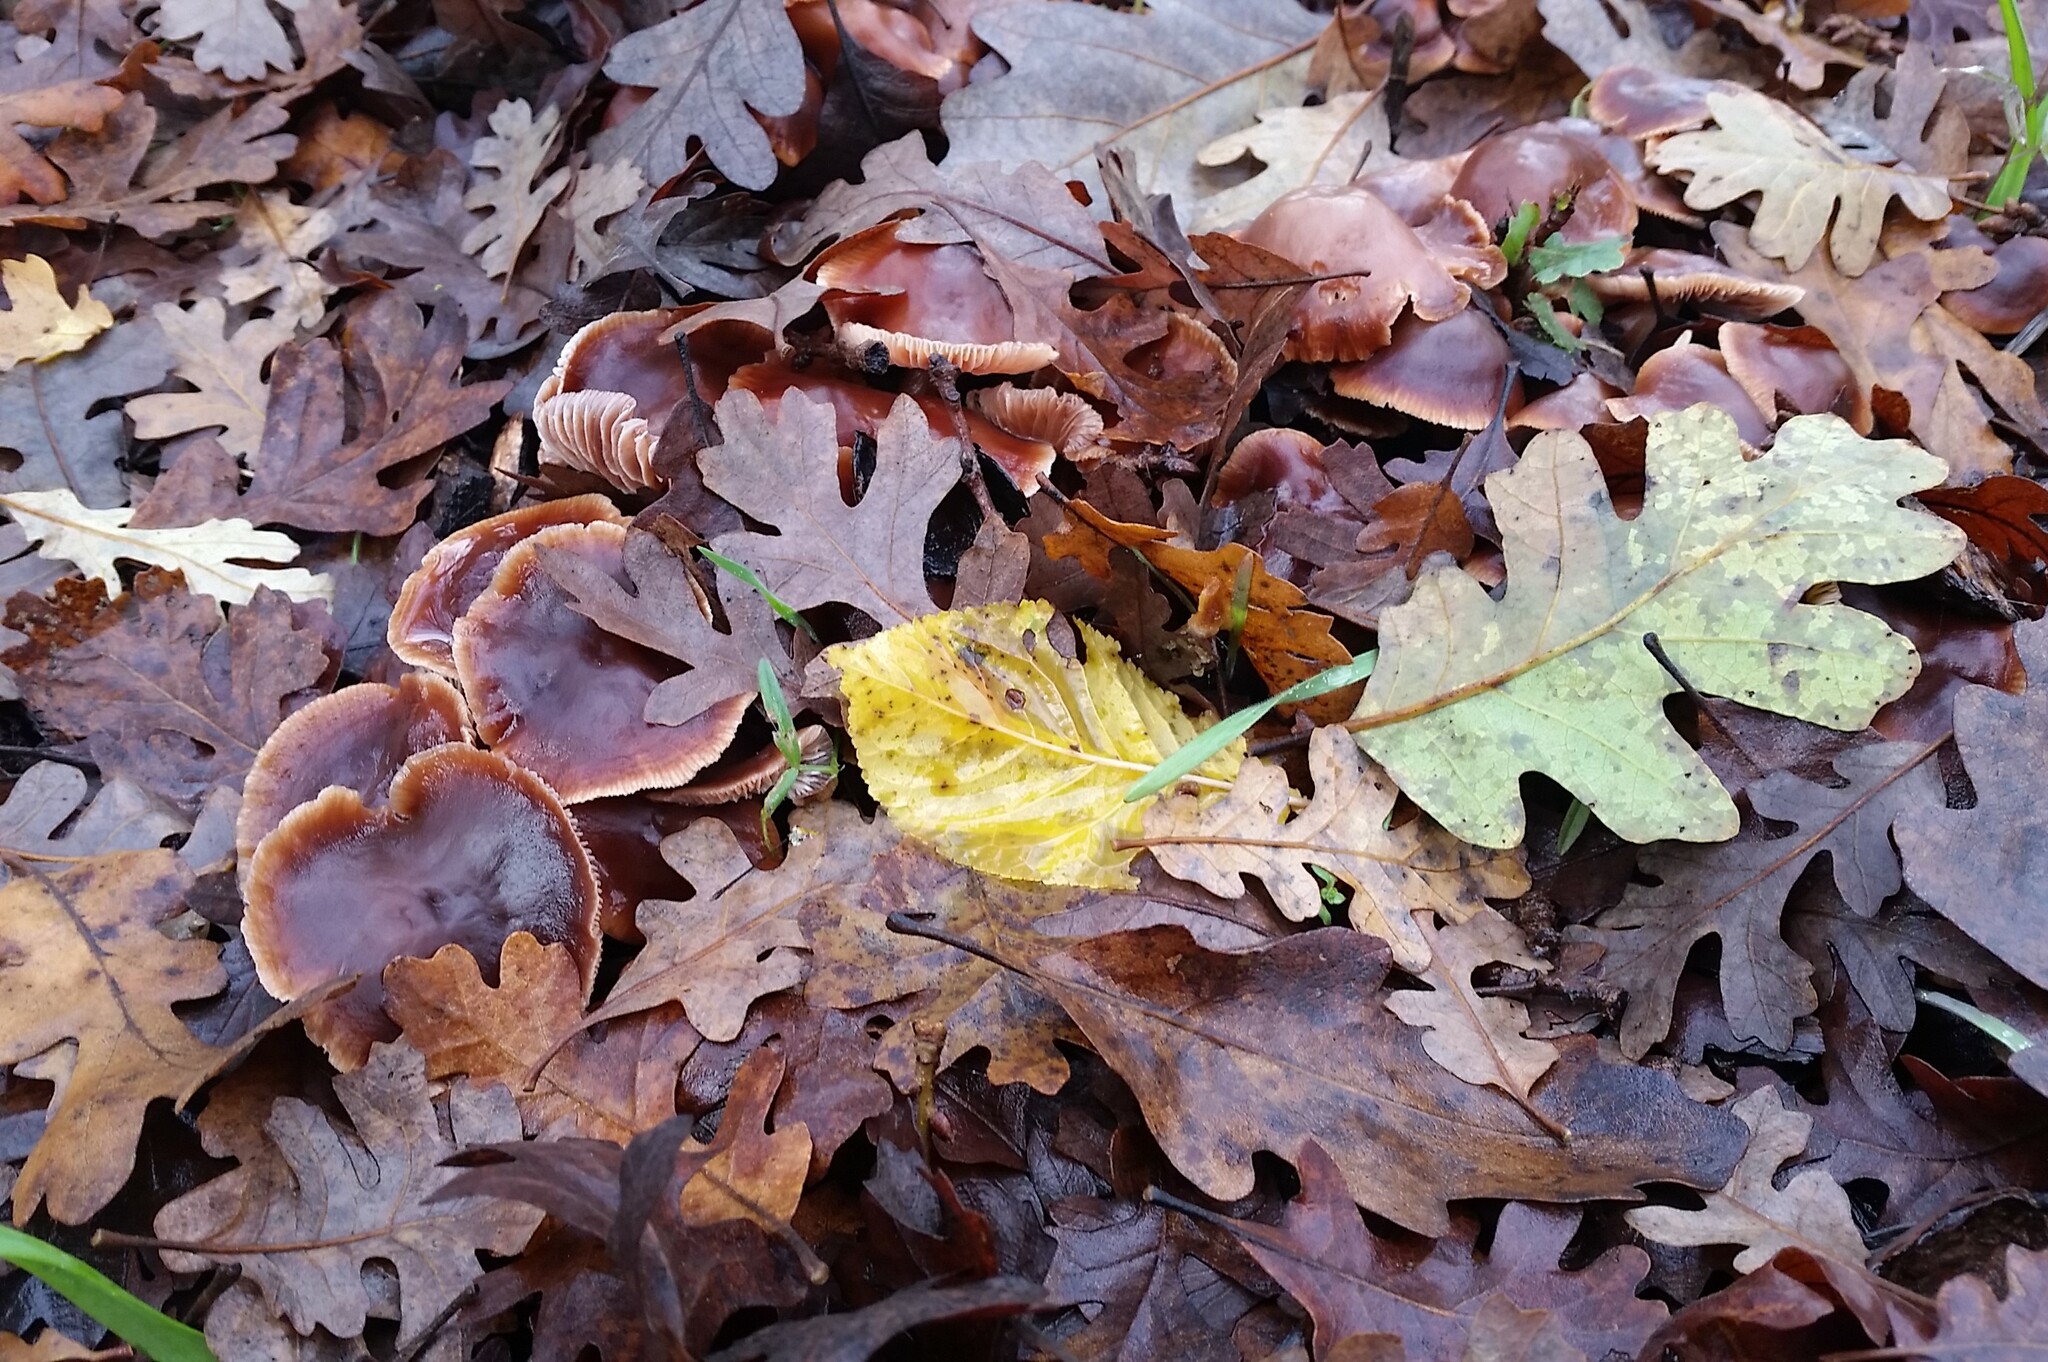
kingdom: Fungi
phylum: Basidiomycota
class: Agaricomycetes
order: Agaricales
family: Omphalotaceae
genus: Gymnopus
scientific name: Gymnopus brassicolens
